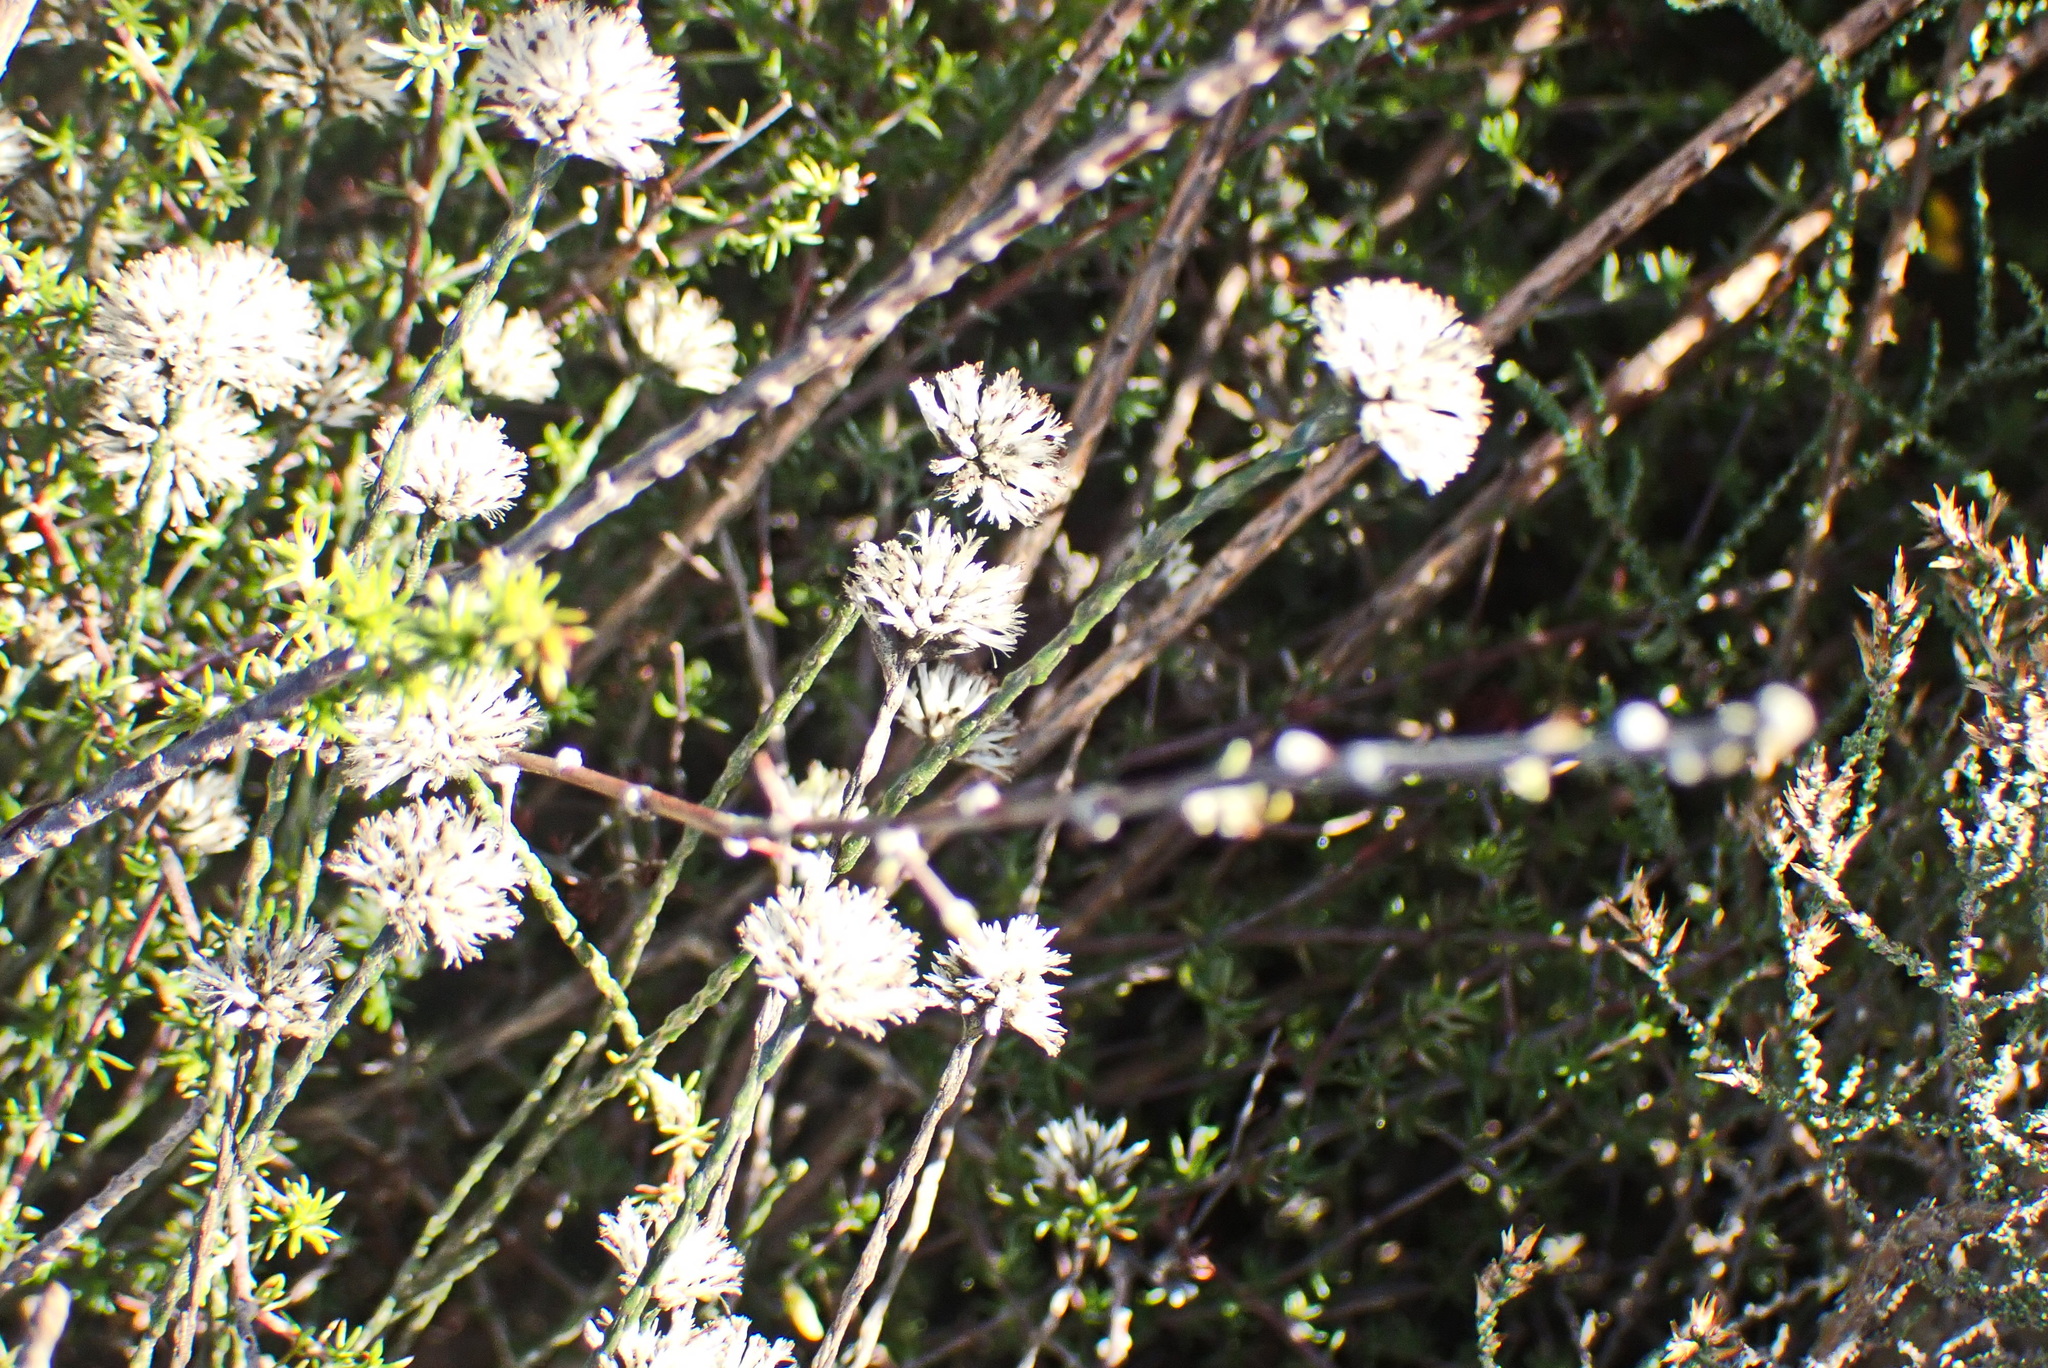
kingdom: Plantae
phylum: Tracheophyta
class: Magnoliopsida
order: Asterales
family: Asteraceae
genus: Stoebe
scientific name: Stoebe microphylla
